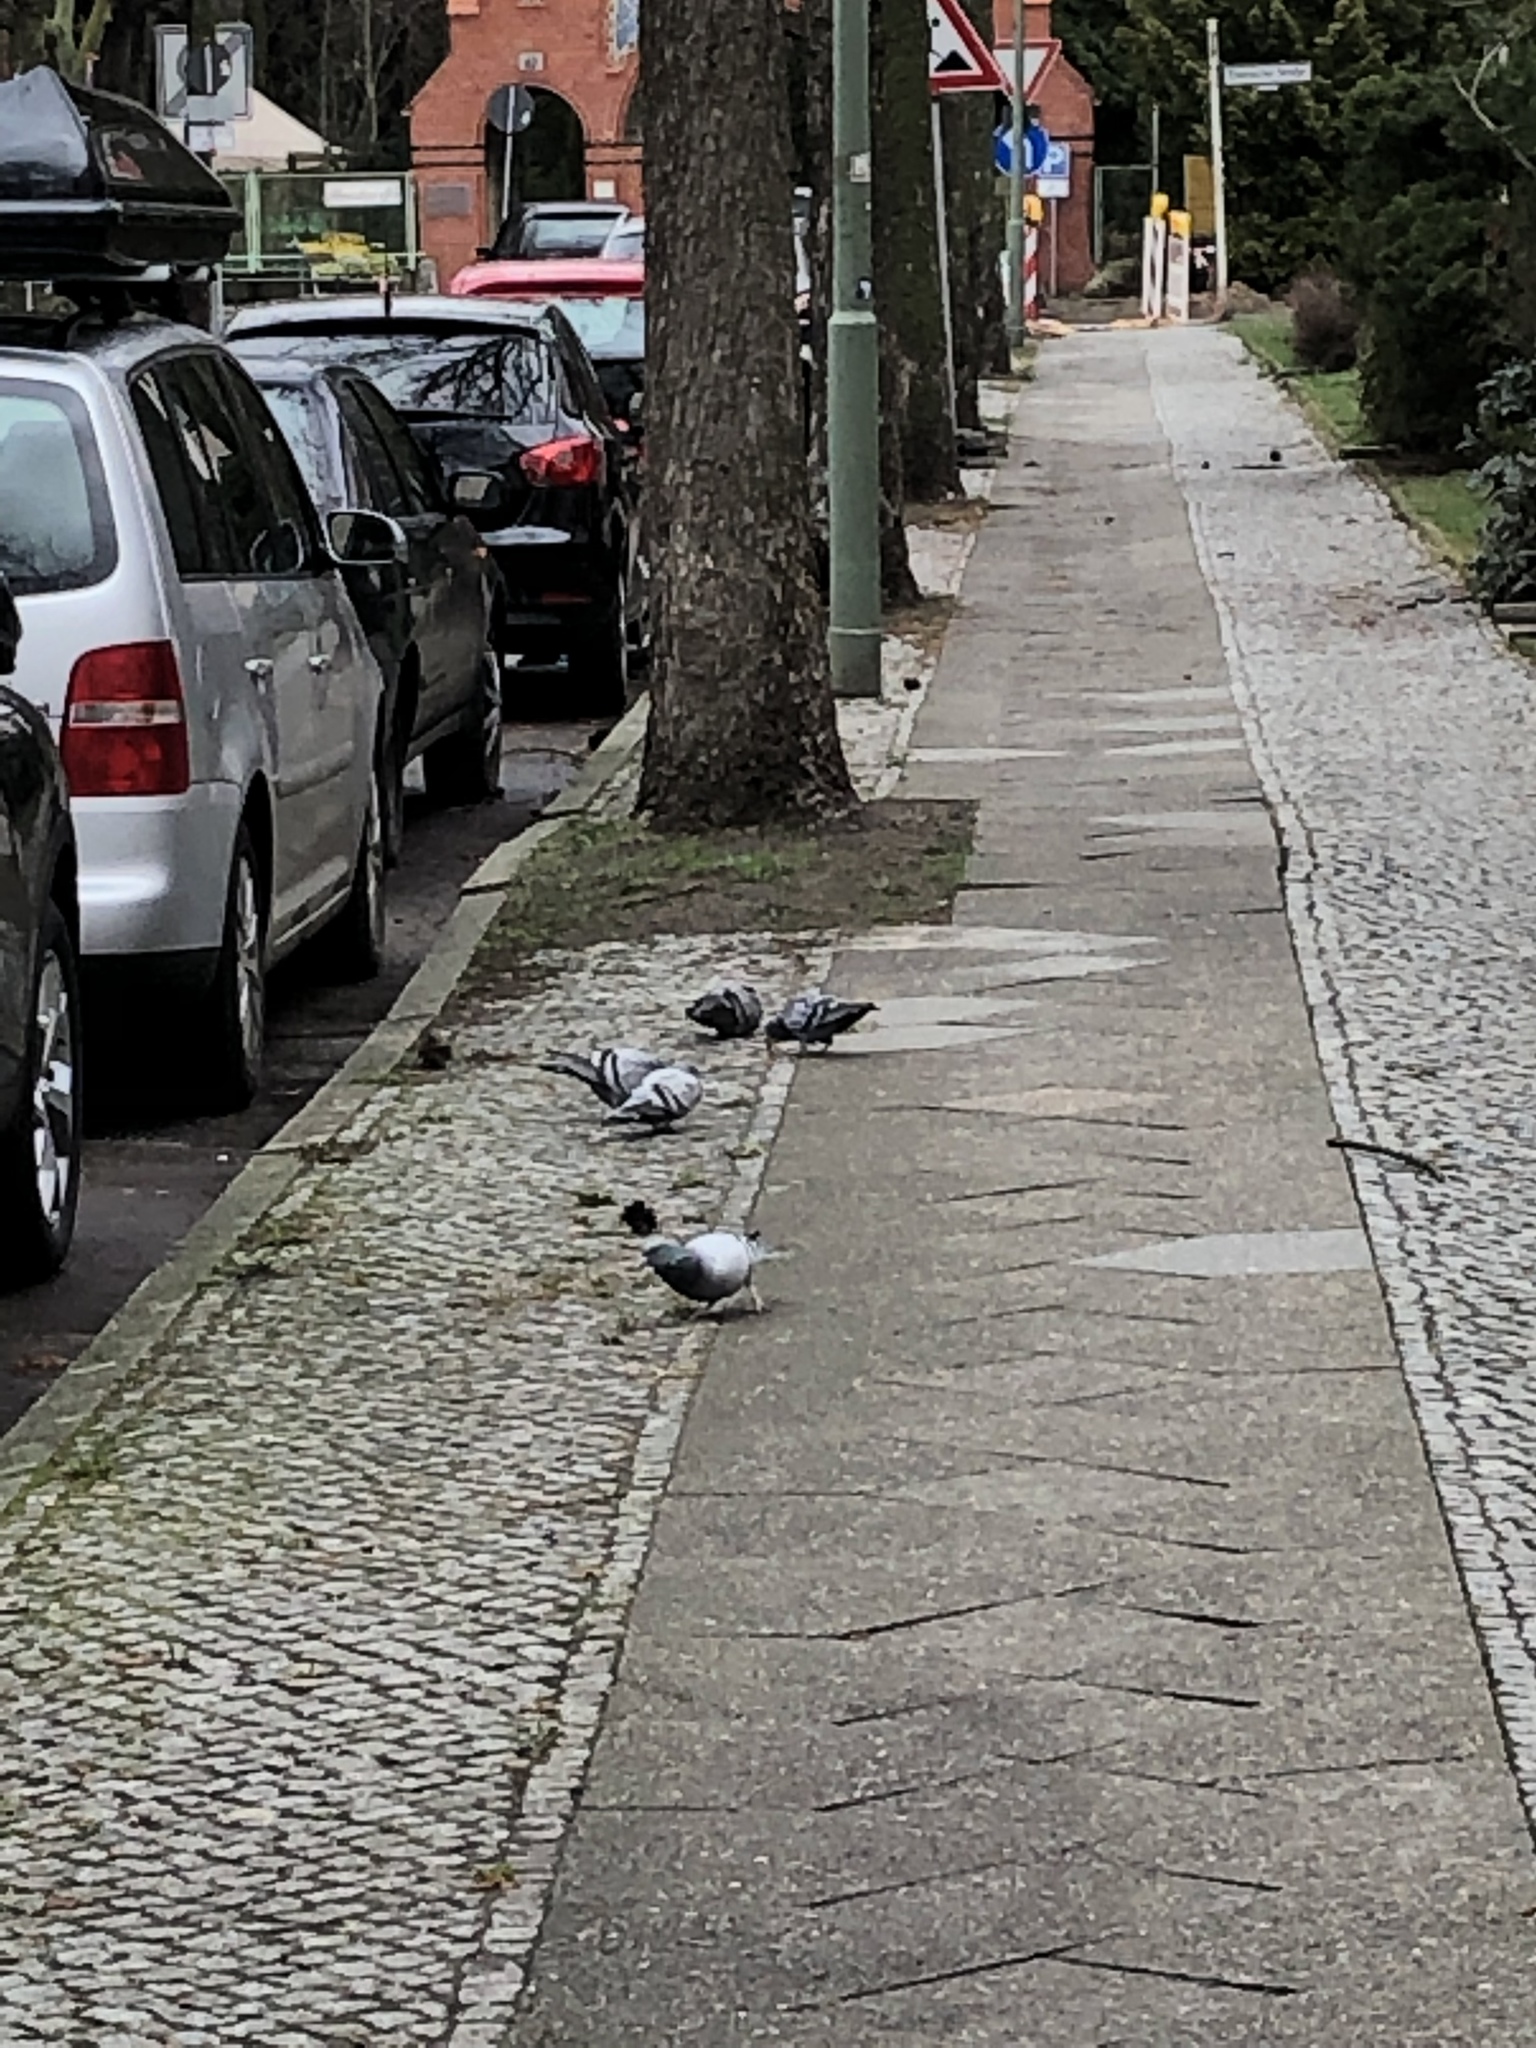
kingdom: Animalia
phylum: Chordata
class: Aves
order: Columbiformes
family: Columbidae
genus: Columba
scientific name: Columba livia
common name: Rock pigeon
